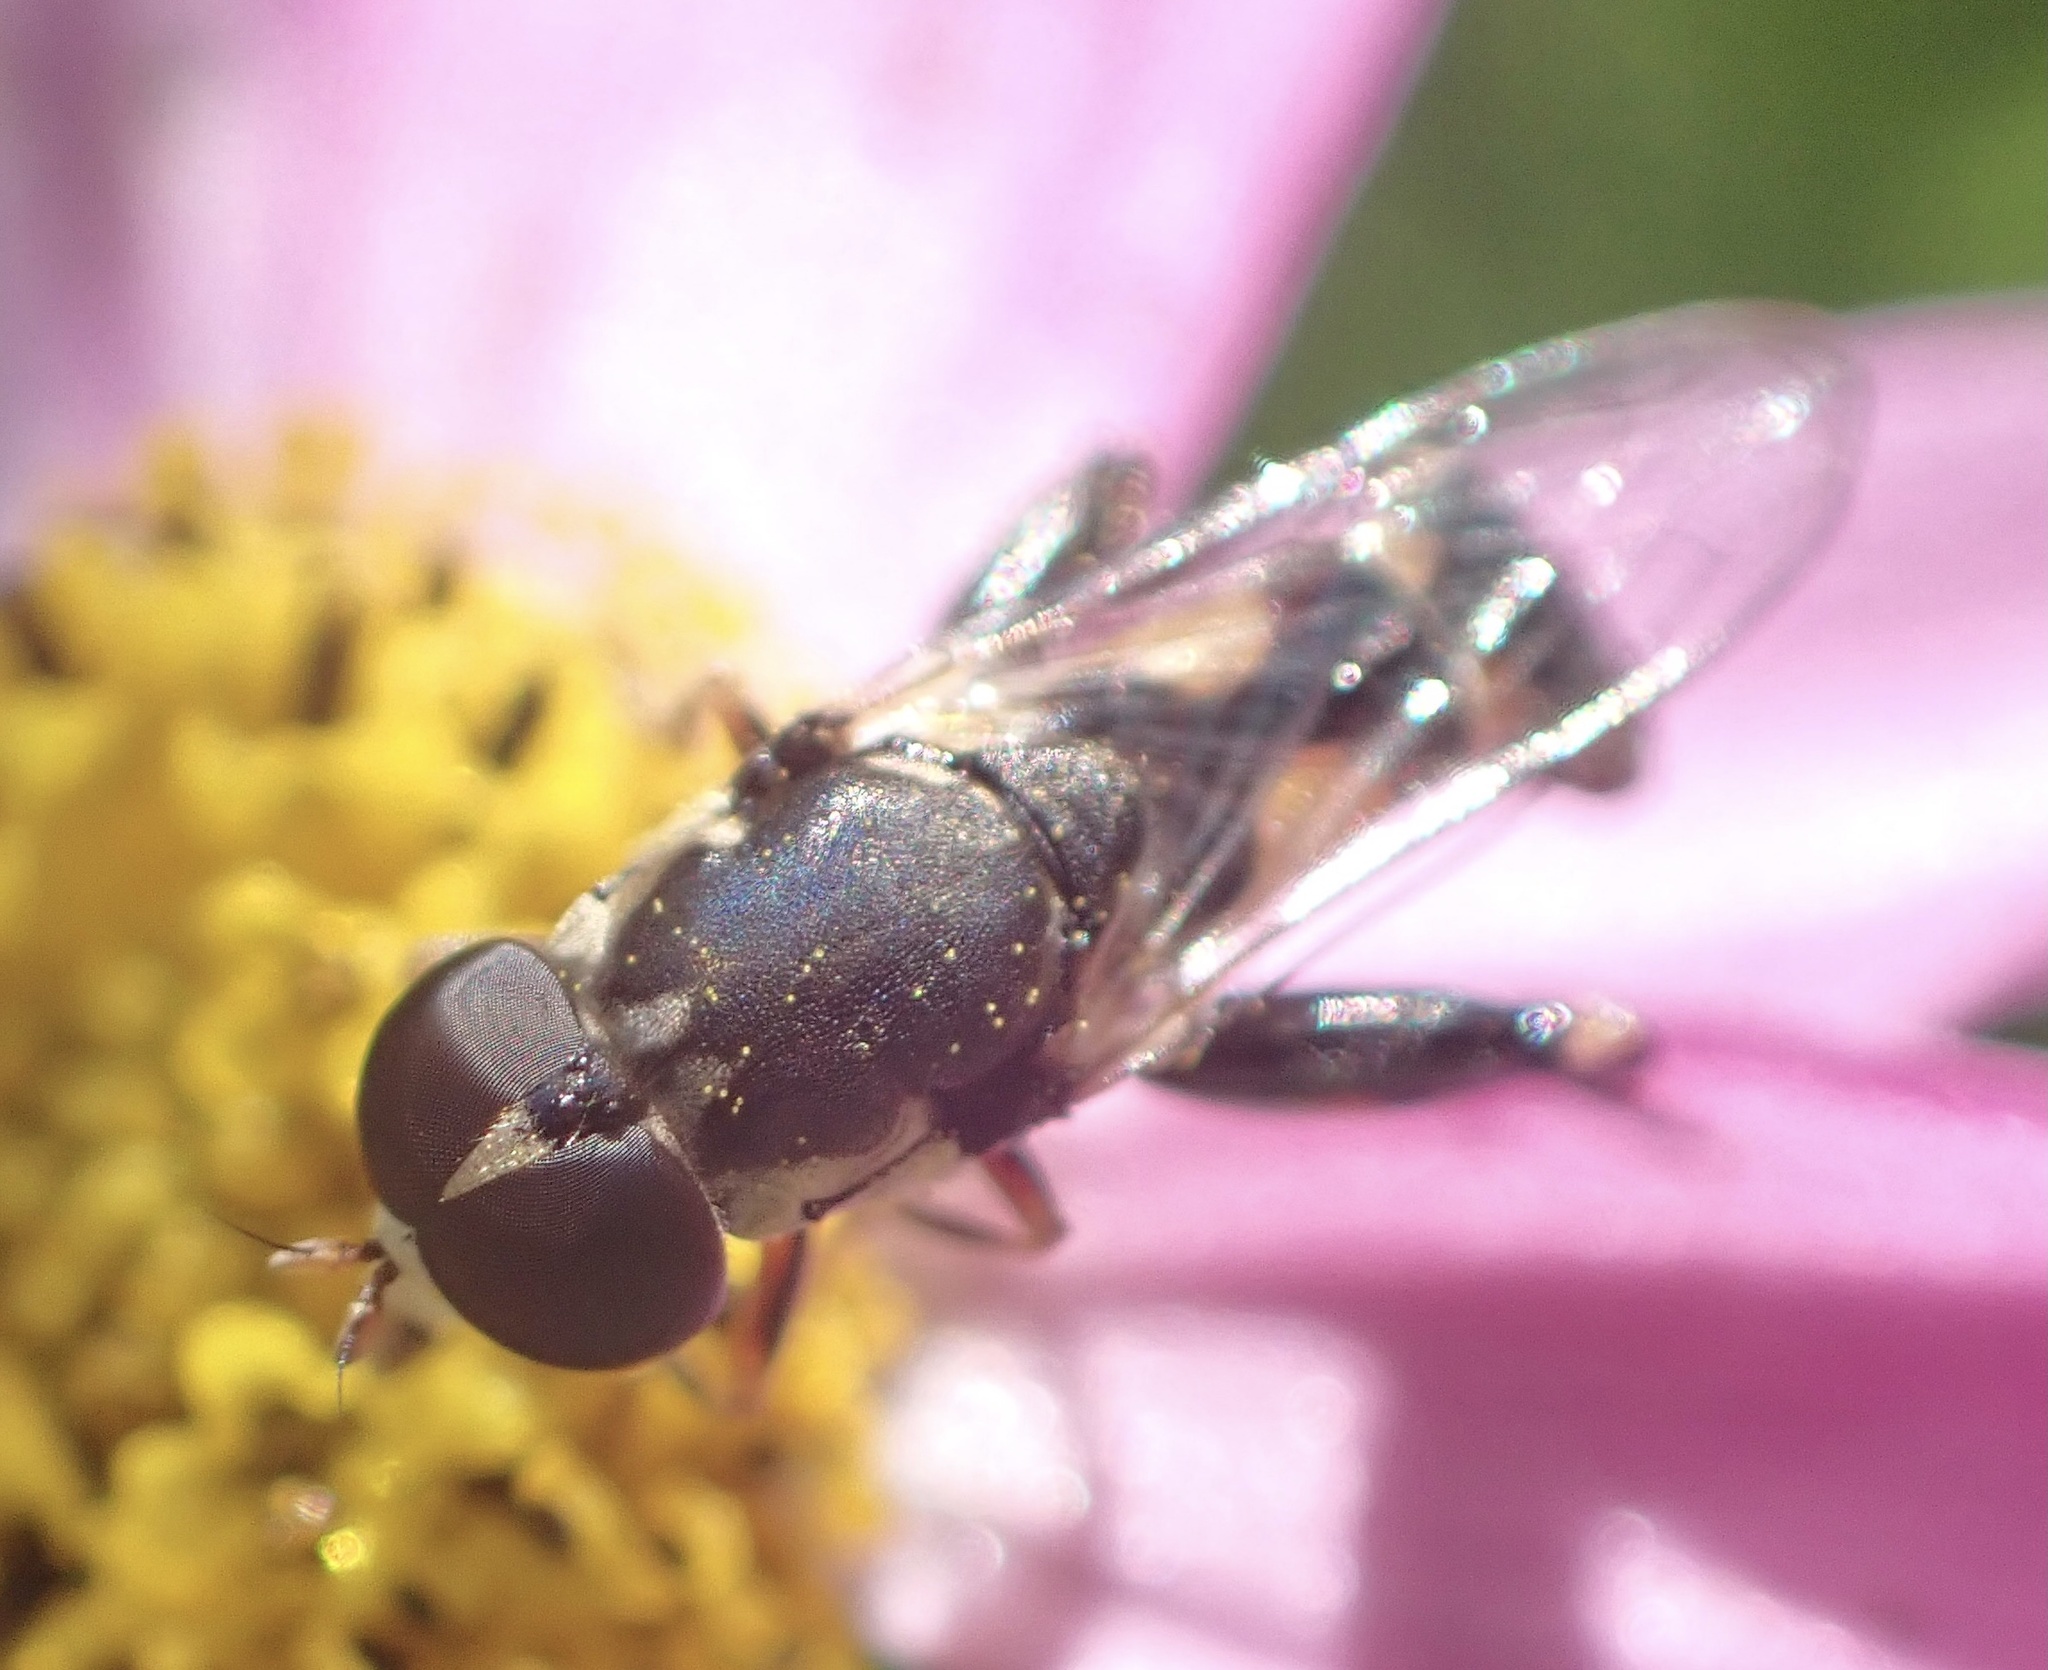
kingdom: Animalia
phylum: Arthropoda
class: Insecta
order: Diptera
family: Syrphidae
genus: Syritta
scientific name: Syritta pipiens
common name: Hover fly
